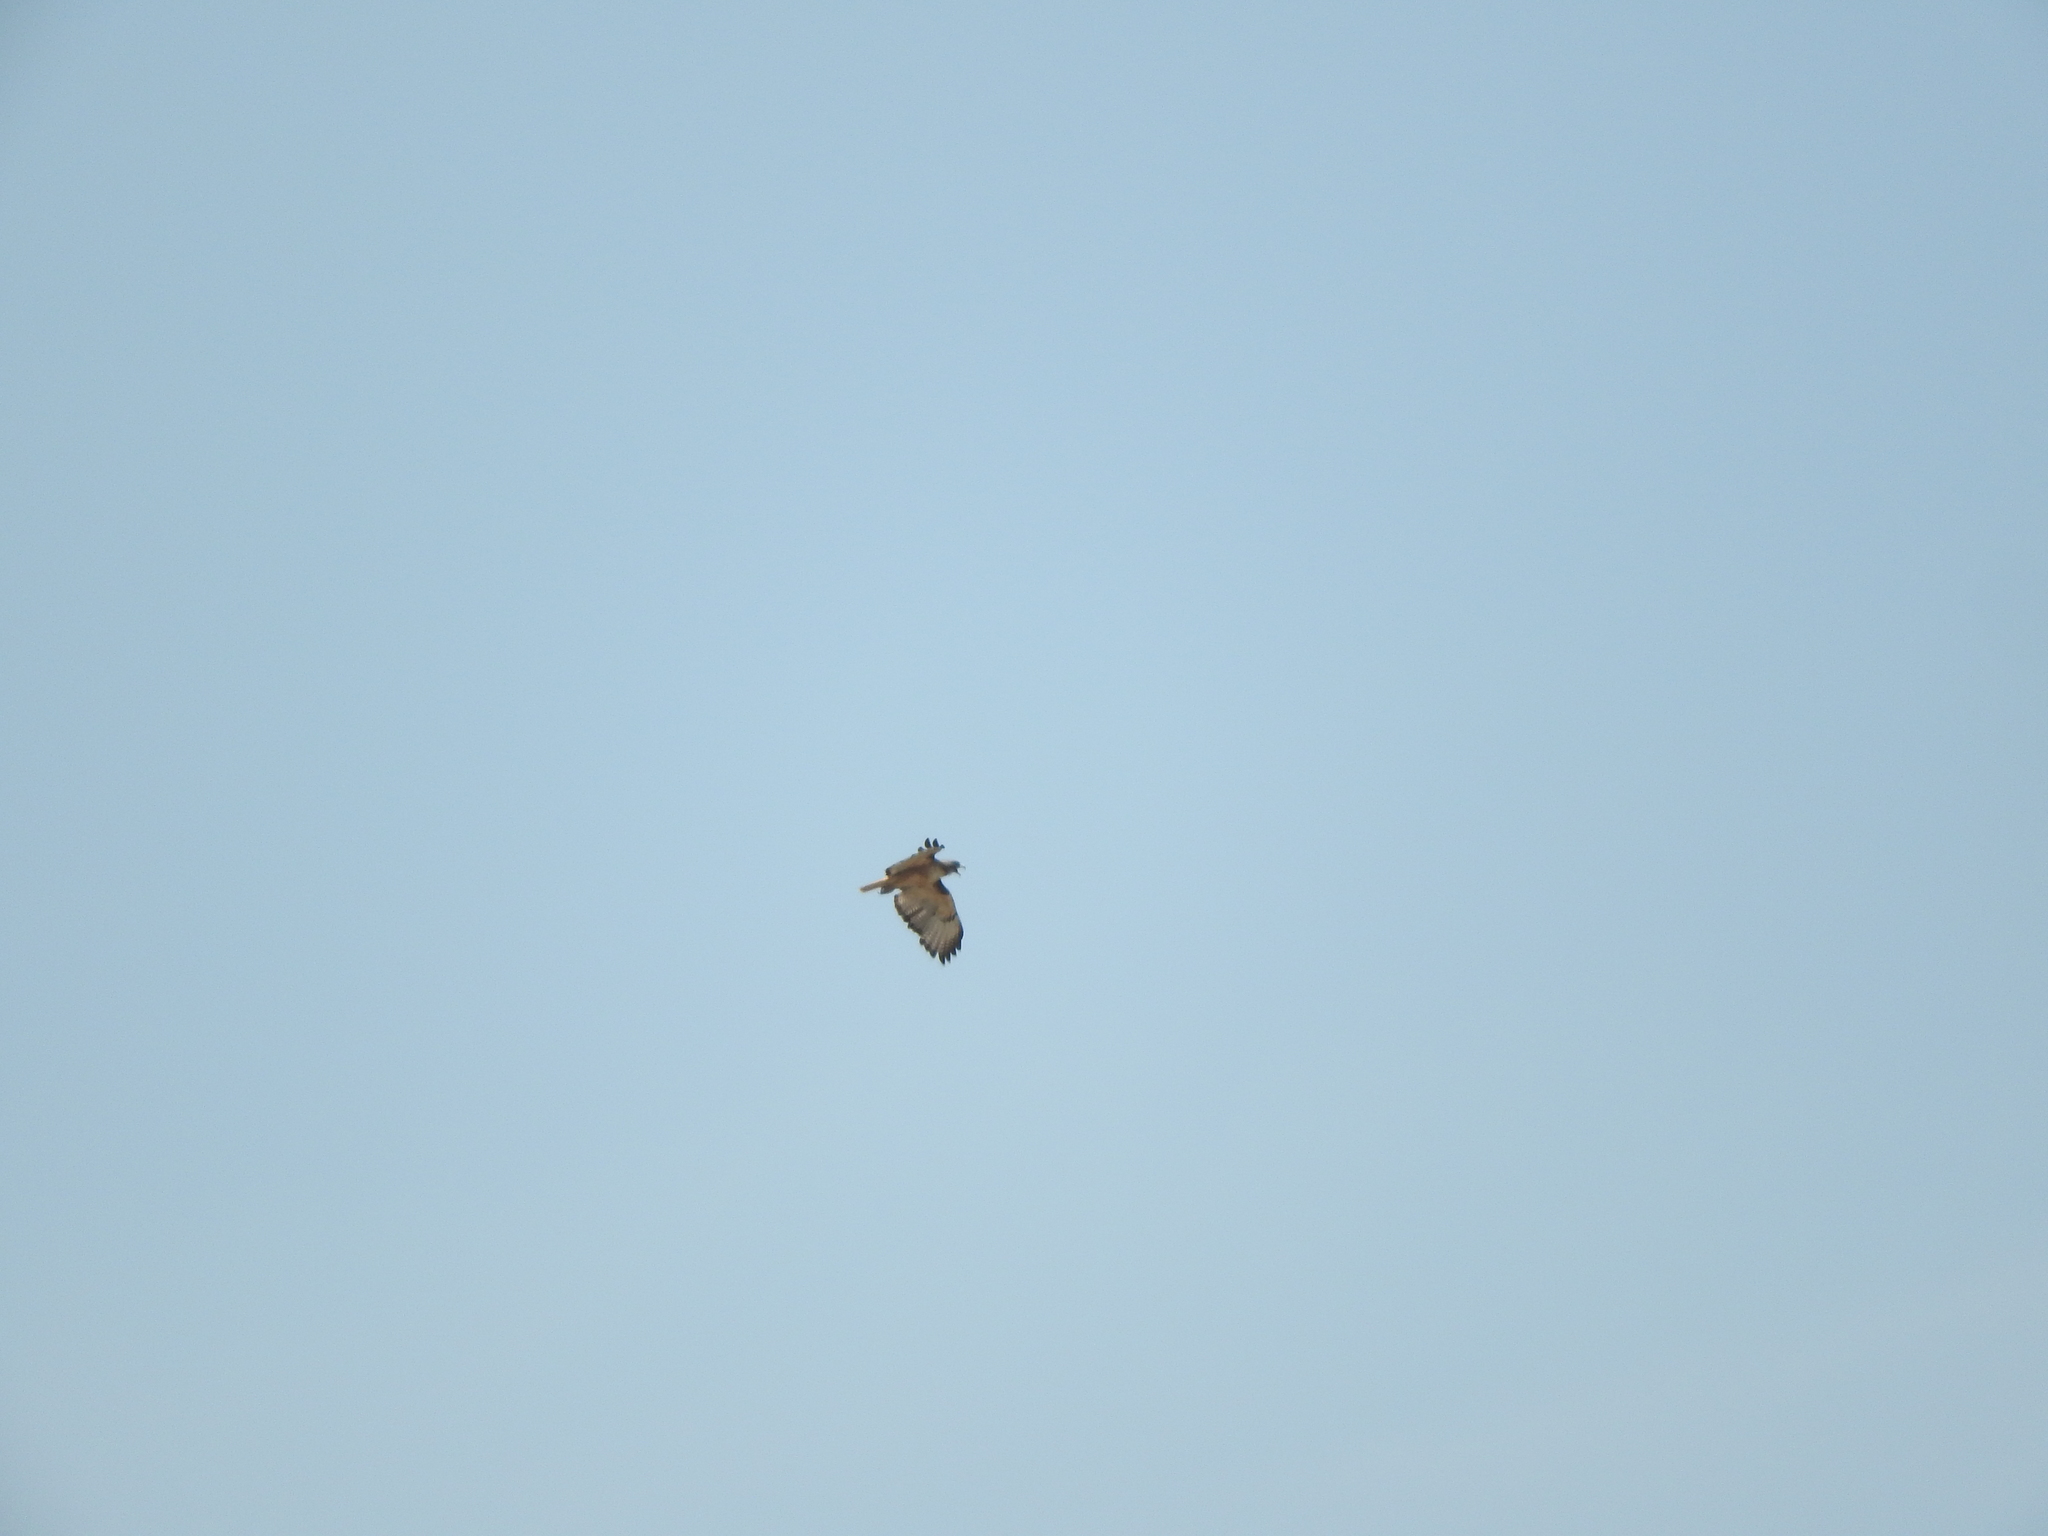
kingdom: Animalia
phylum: Chordata
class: Aves
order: Accipitriformes
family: Accipitridae
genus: Buteo
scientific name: Buteo jamaicensis
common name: Red-tailed hawk
